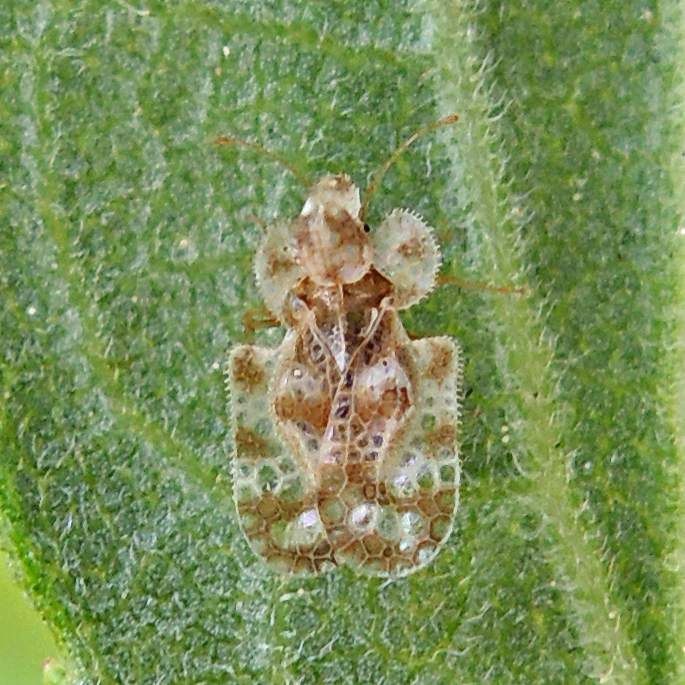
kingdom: Animalia
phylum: Arthropoda
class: Insecta
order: Hemiptera
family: Tingidae
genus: Corythucha
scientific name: Corythucha marmorata
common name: Chrysanthemum lace bug
